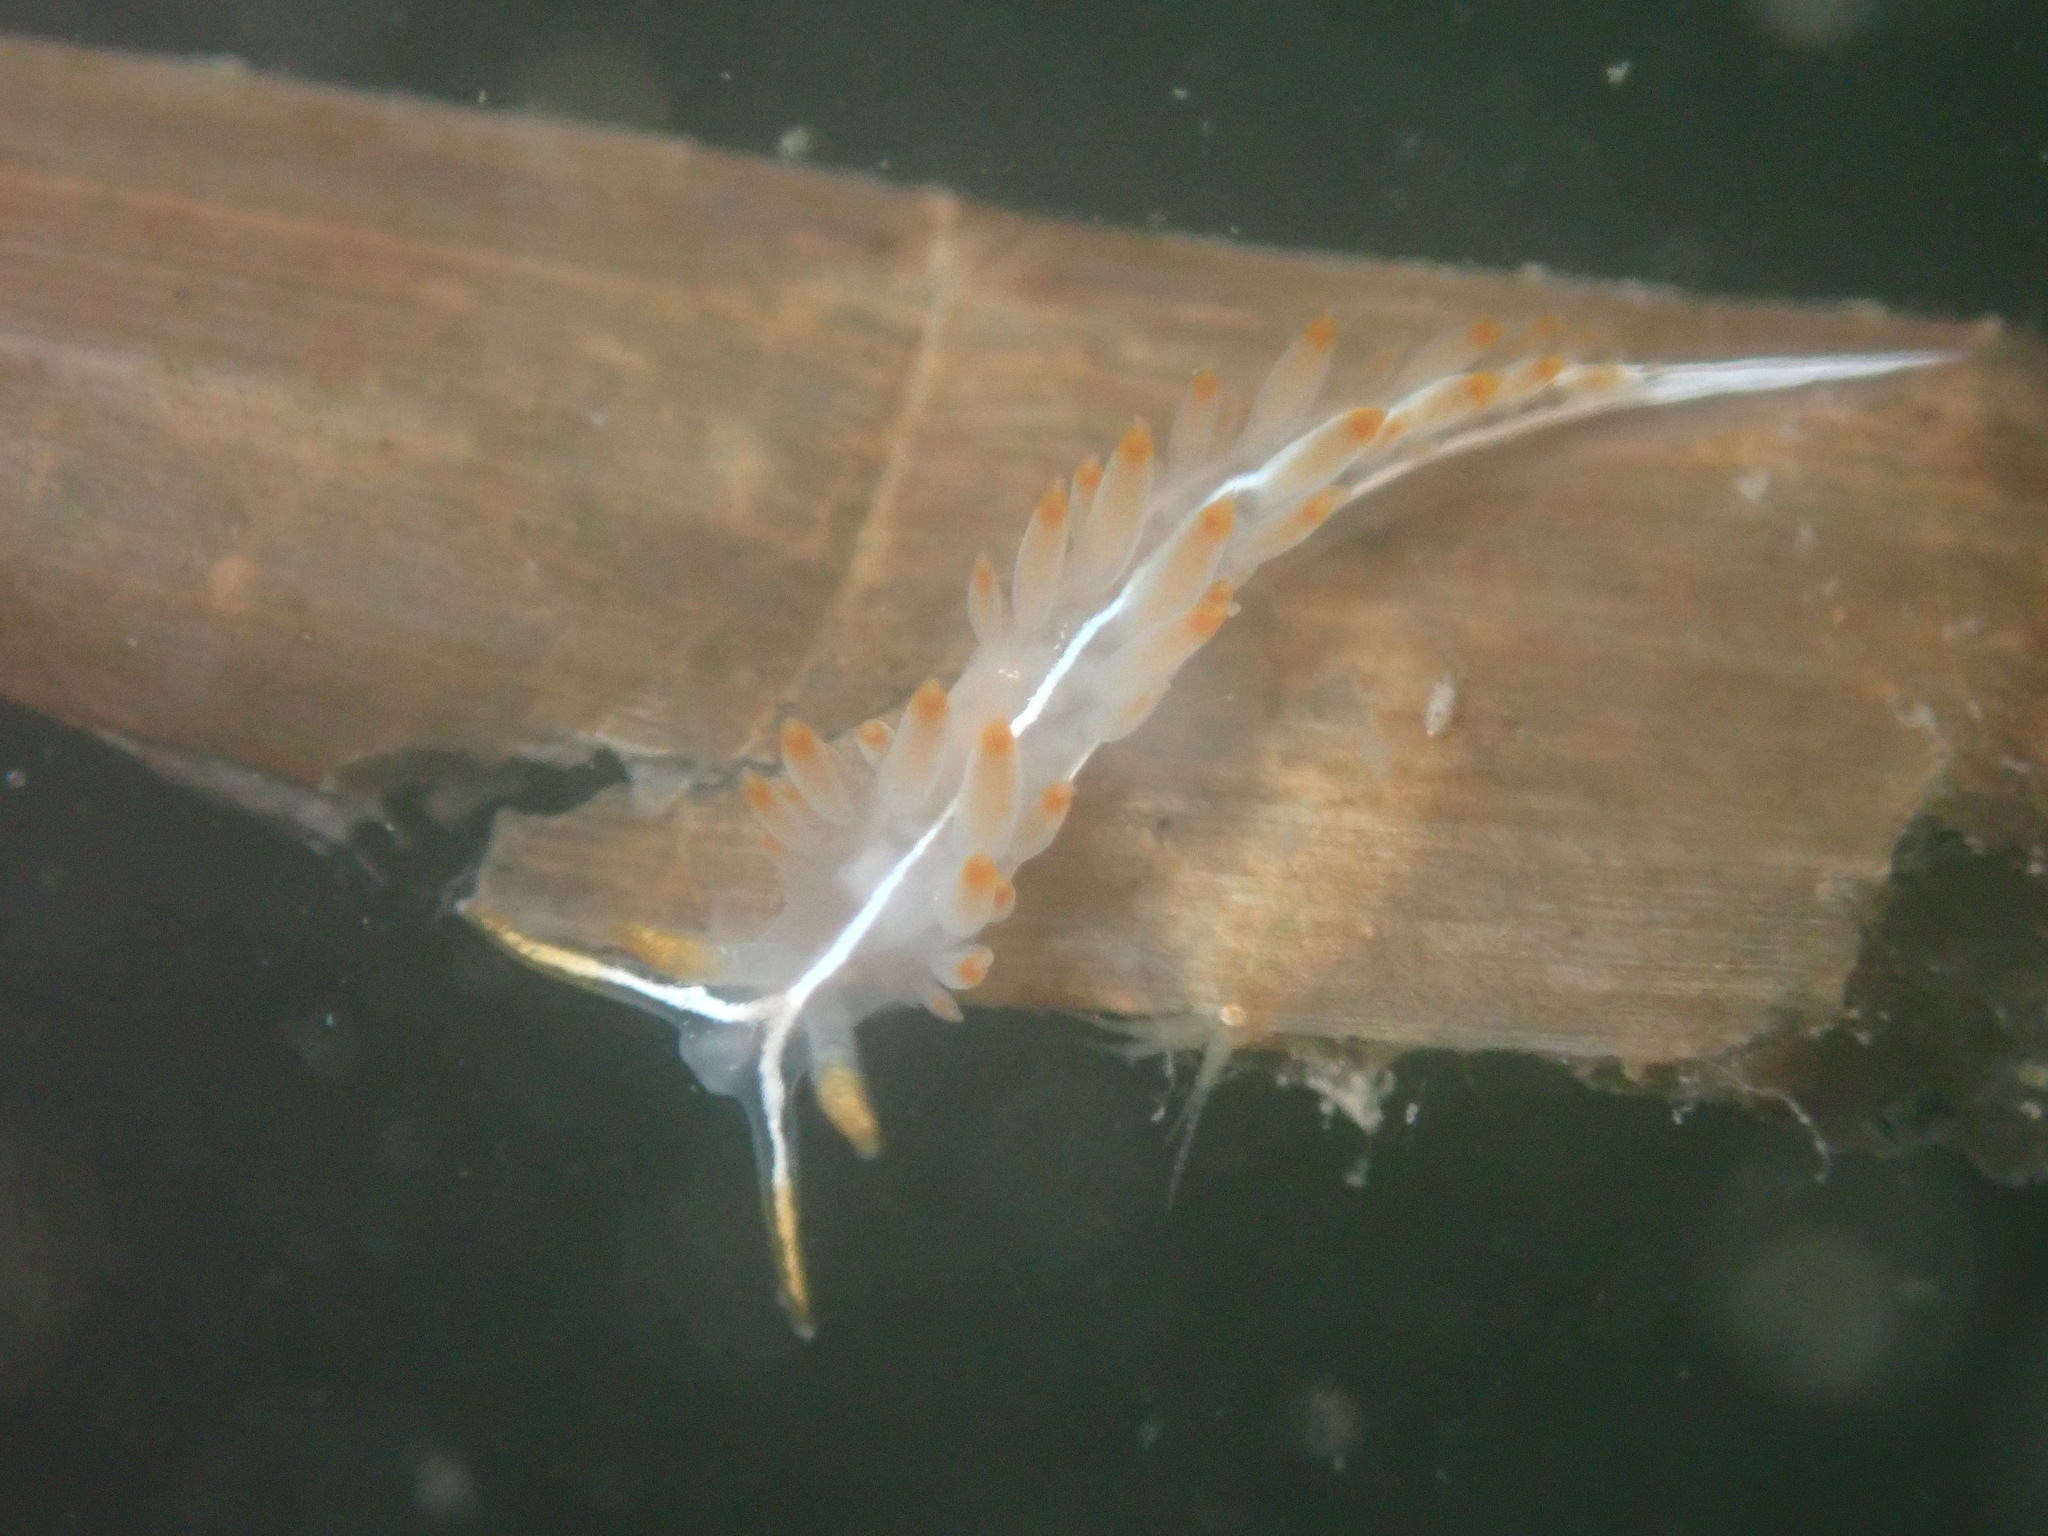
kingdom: Animalia
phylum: Mollusca
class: Gastropoda
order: Nudibranchia
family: Coryphellidae
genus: Coryphella
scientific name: Coryphella trilineata
